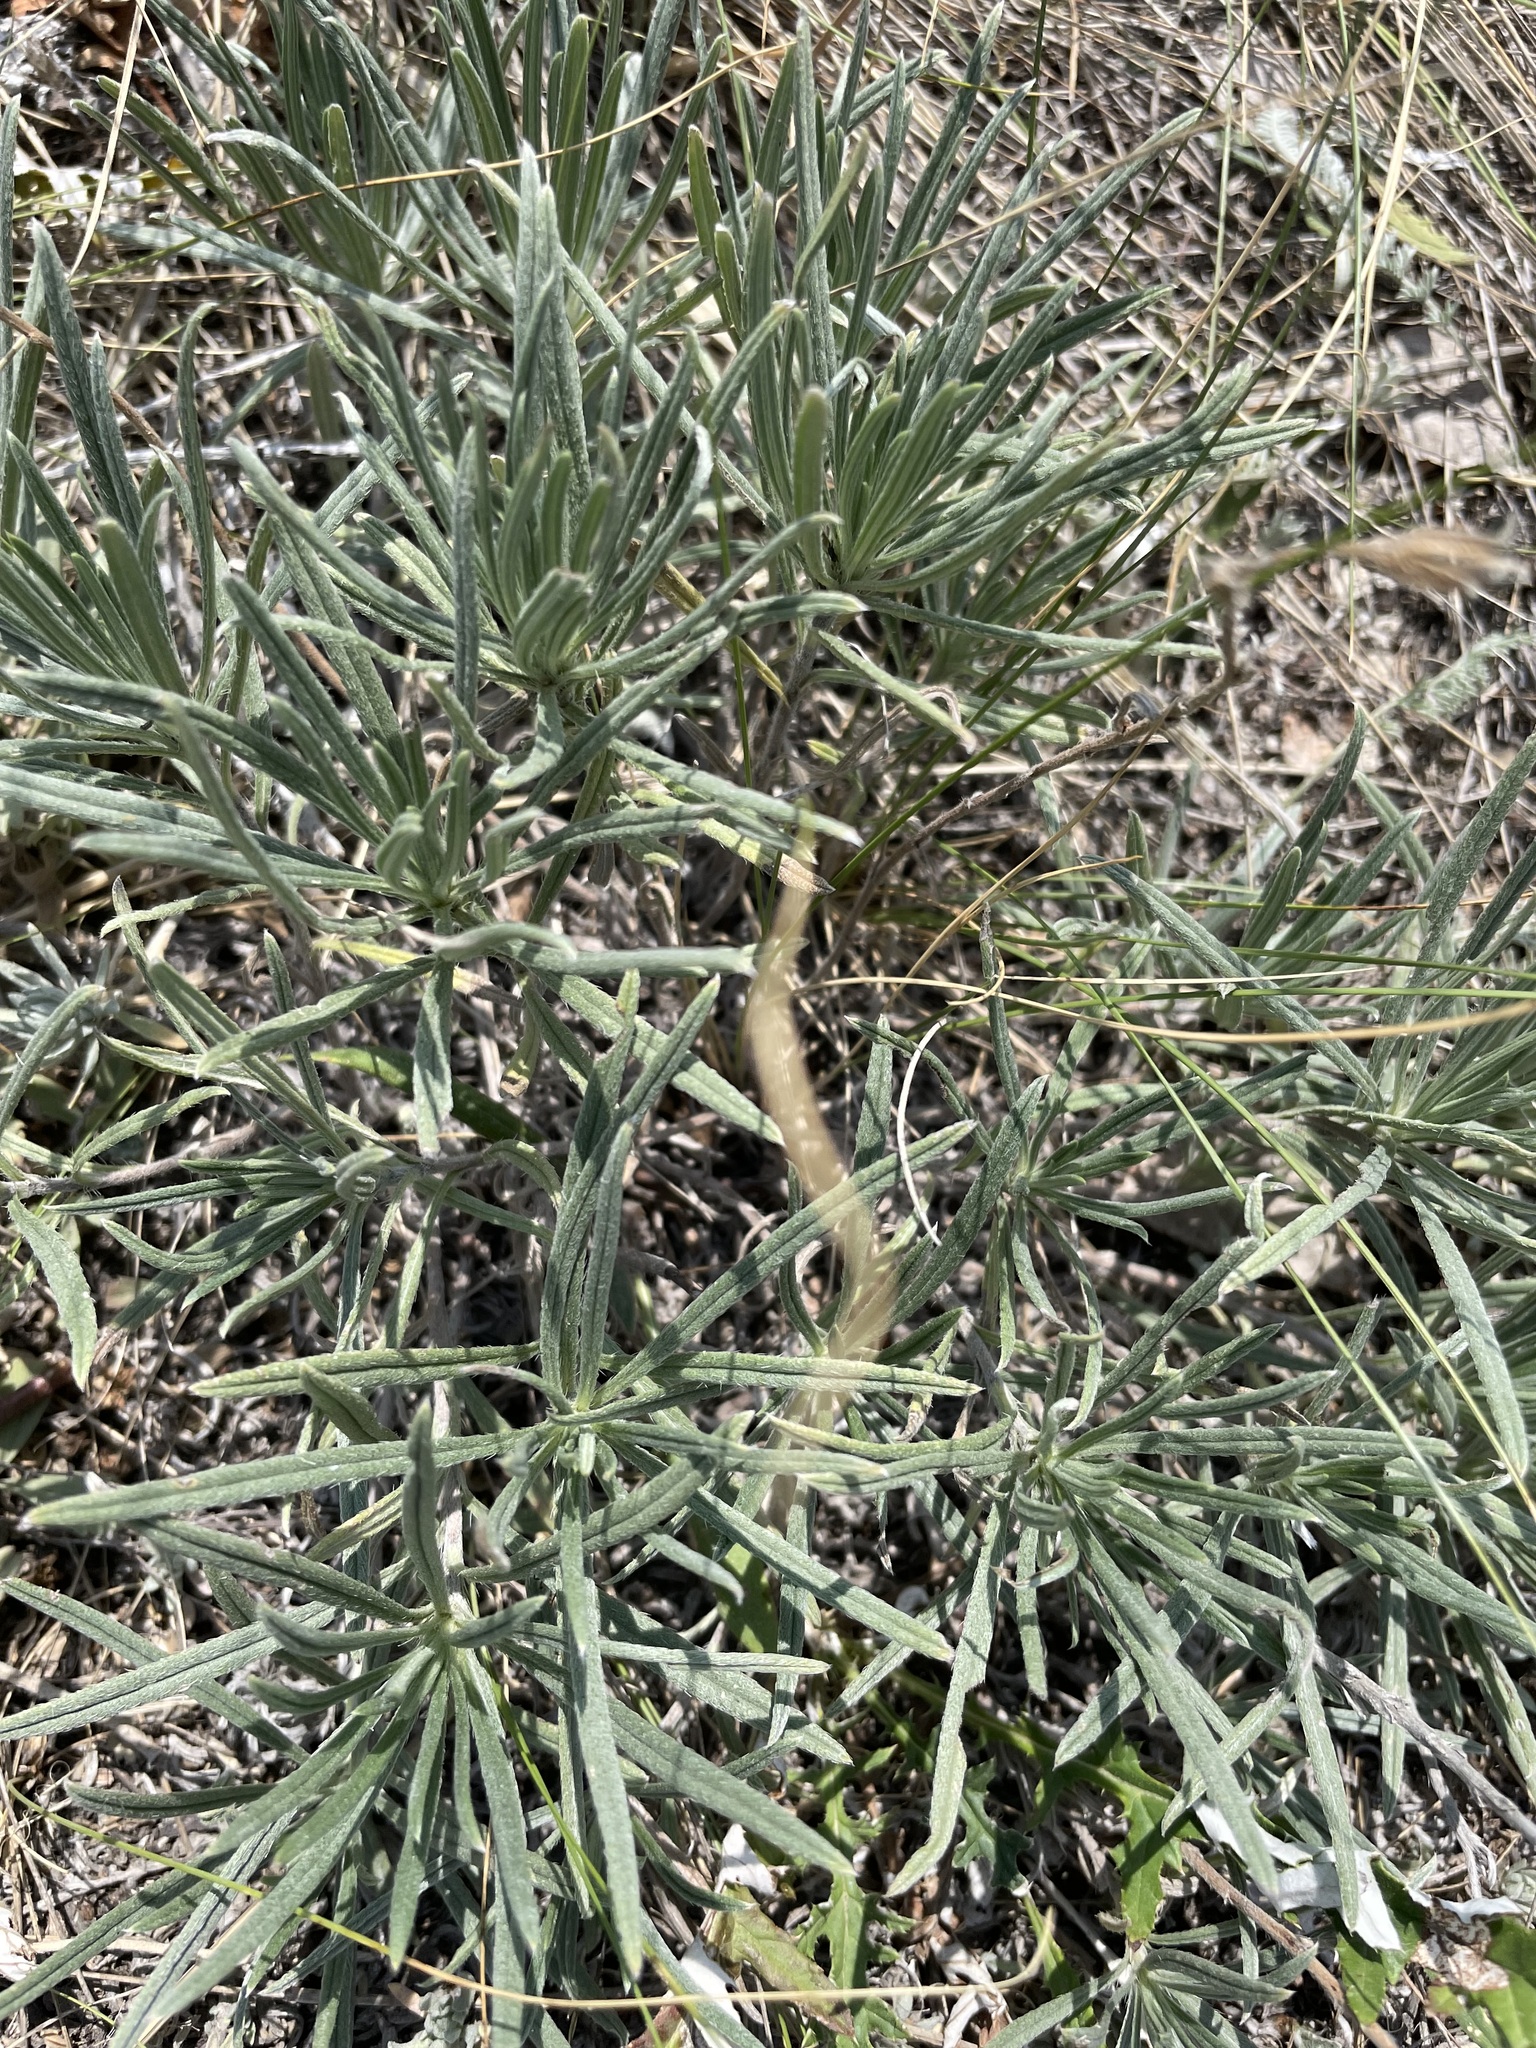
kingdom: Plantae
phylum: Tracheophyta
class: Magnoliopsida
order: Boraginales
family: Boraginaceae
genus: Onosma
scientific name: Onosma simplicissima
